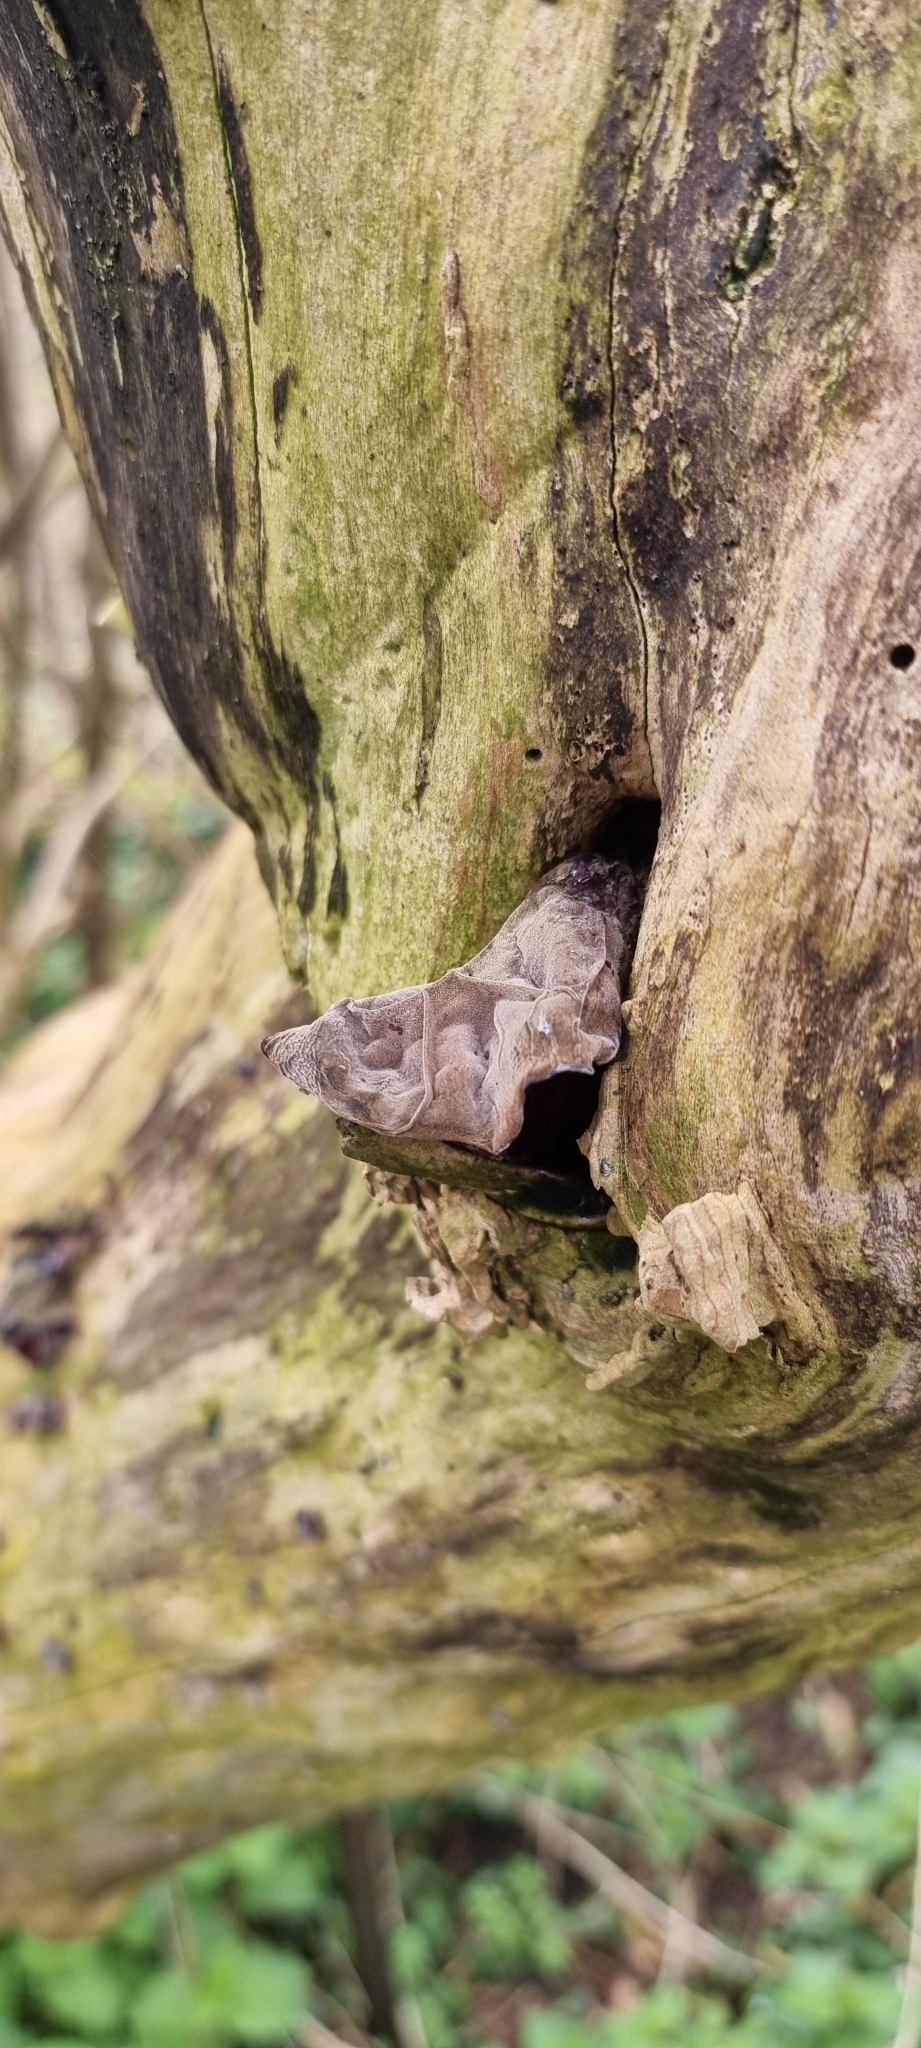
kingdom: Fungi
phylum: Basidiomycota
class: Agaricomycetes
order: Auriculariales
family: Auriculariaceae
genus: Auricularia
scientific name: Auricularia auricula-judae
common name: Jelly ear
